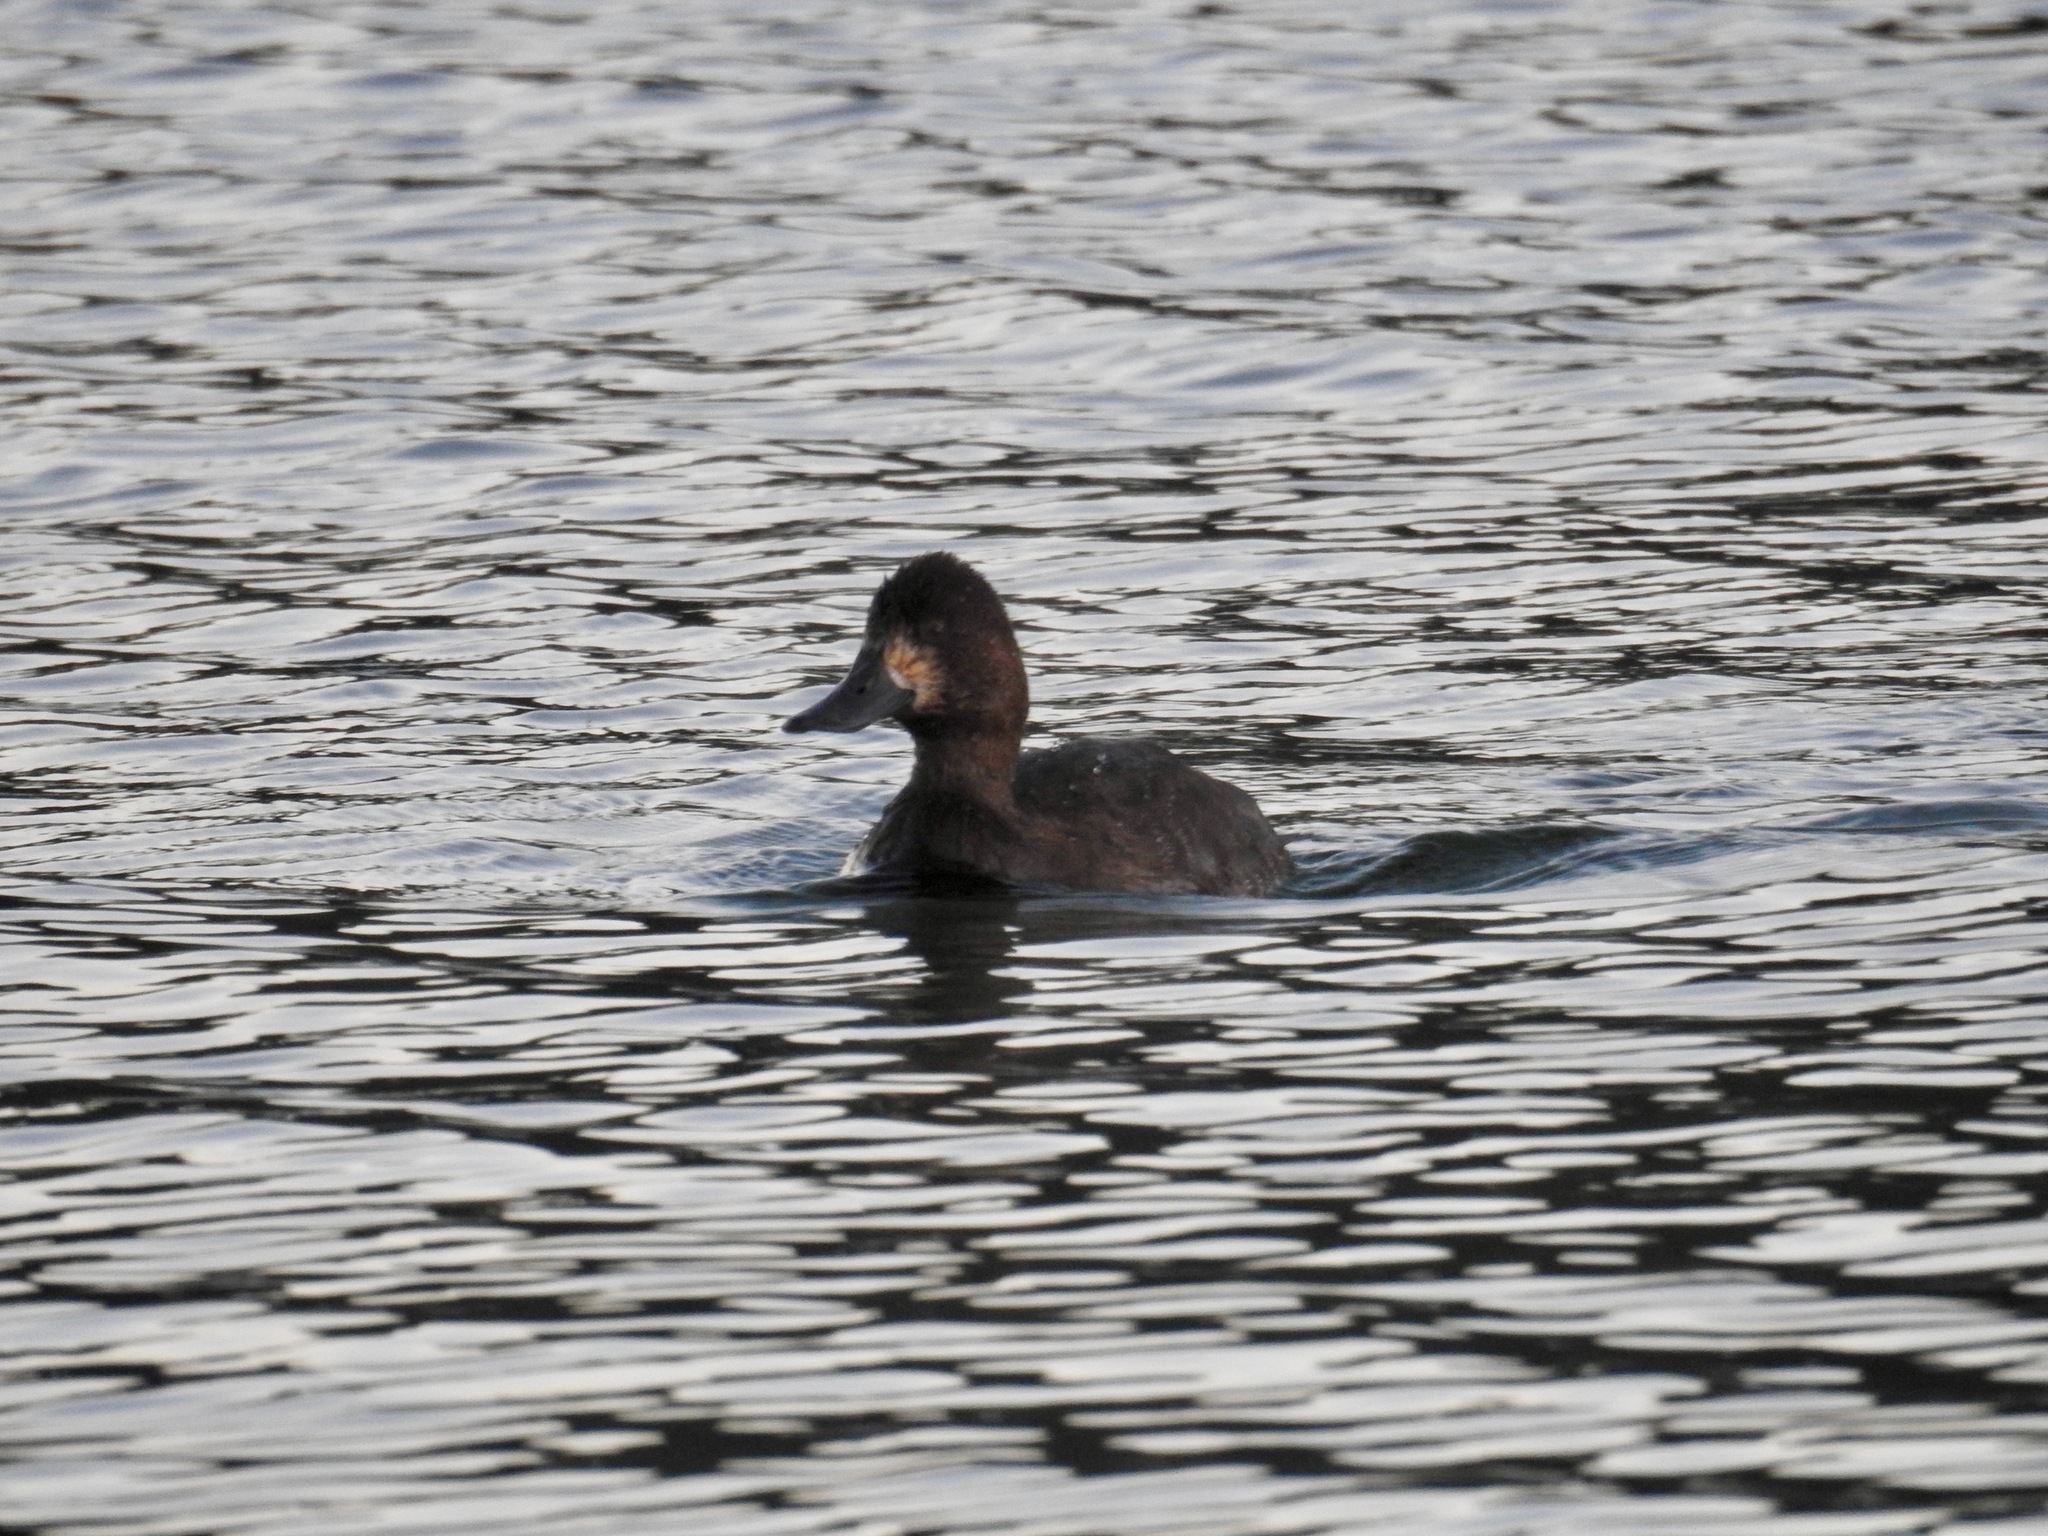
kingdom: Animalia
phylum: Chordata
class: Aves
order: Anseriformes
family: Anatidae
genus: Aythya
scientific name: Aythya affinis
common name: Lesser scaup
